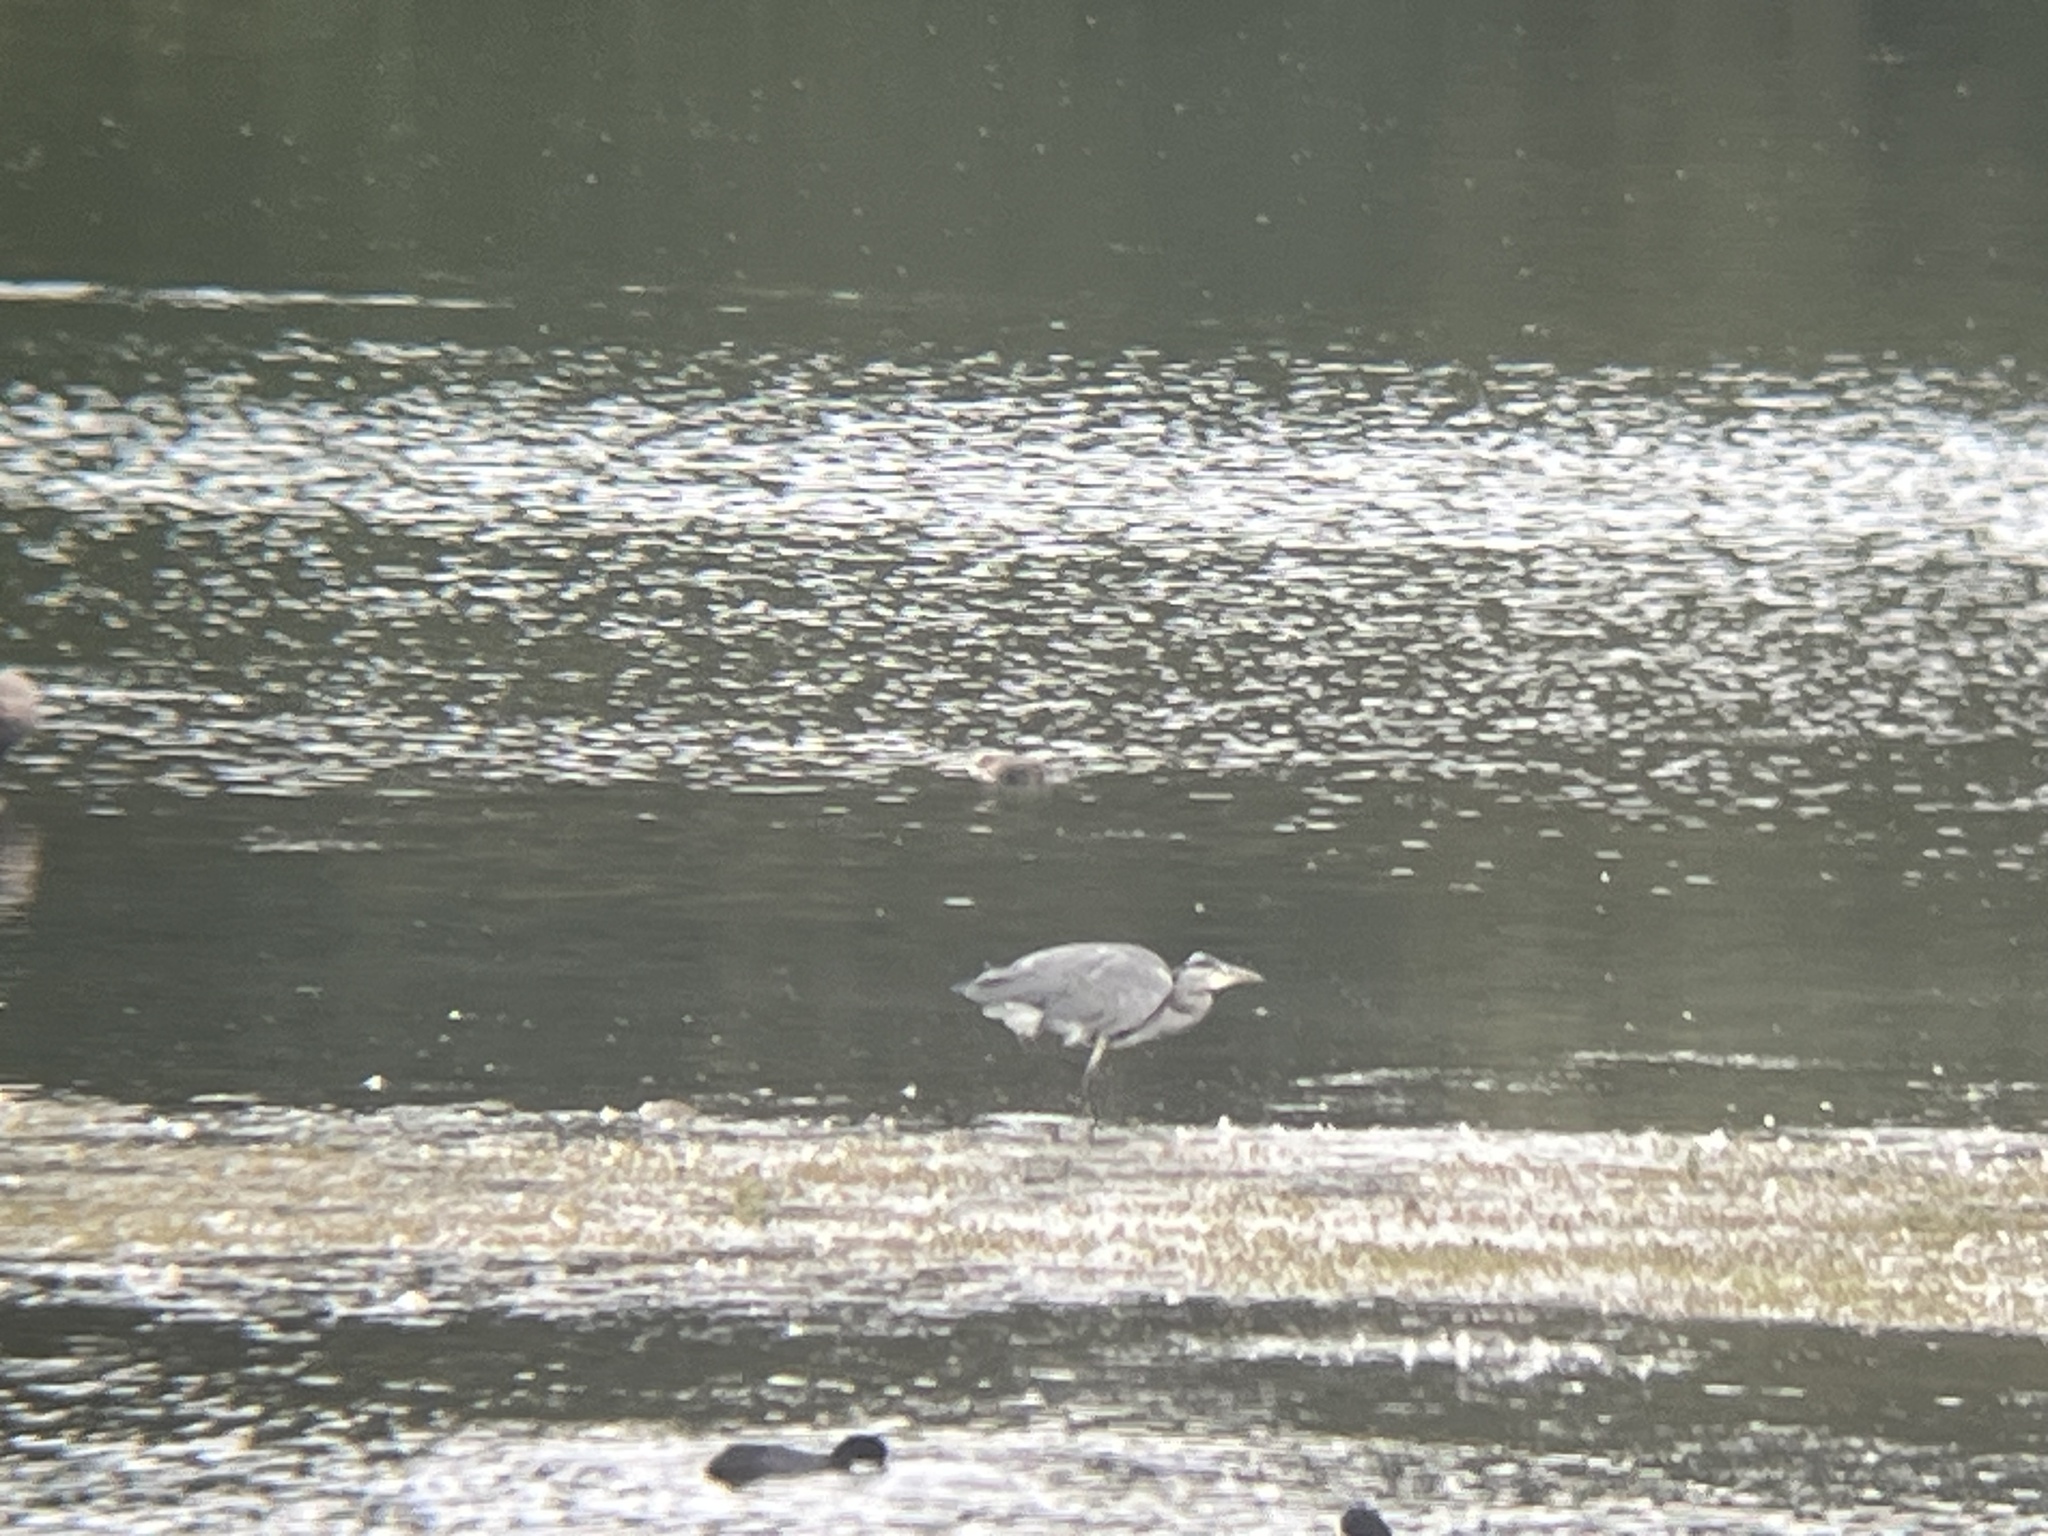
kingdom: Animalia
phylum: Chordata
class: Aves
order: Pelecaniformes
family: Ardeidae
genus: Ardea
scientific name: Ardea cinerea
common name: Grey heron
